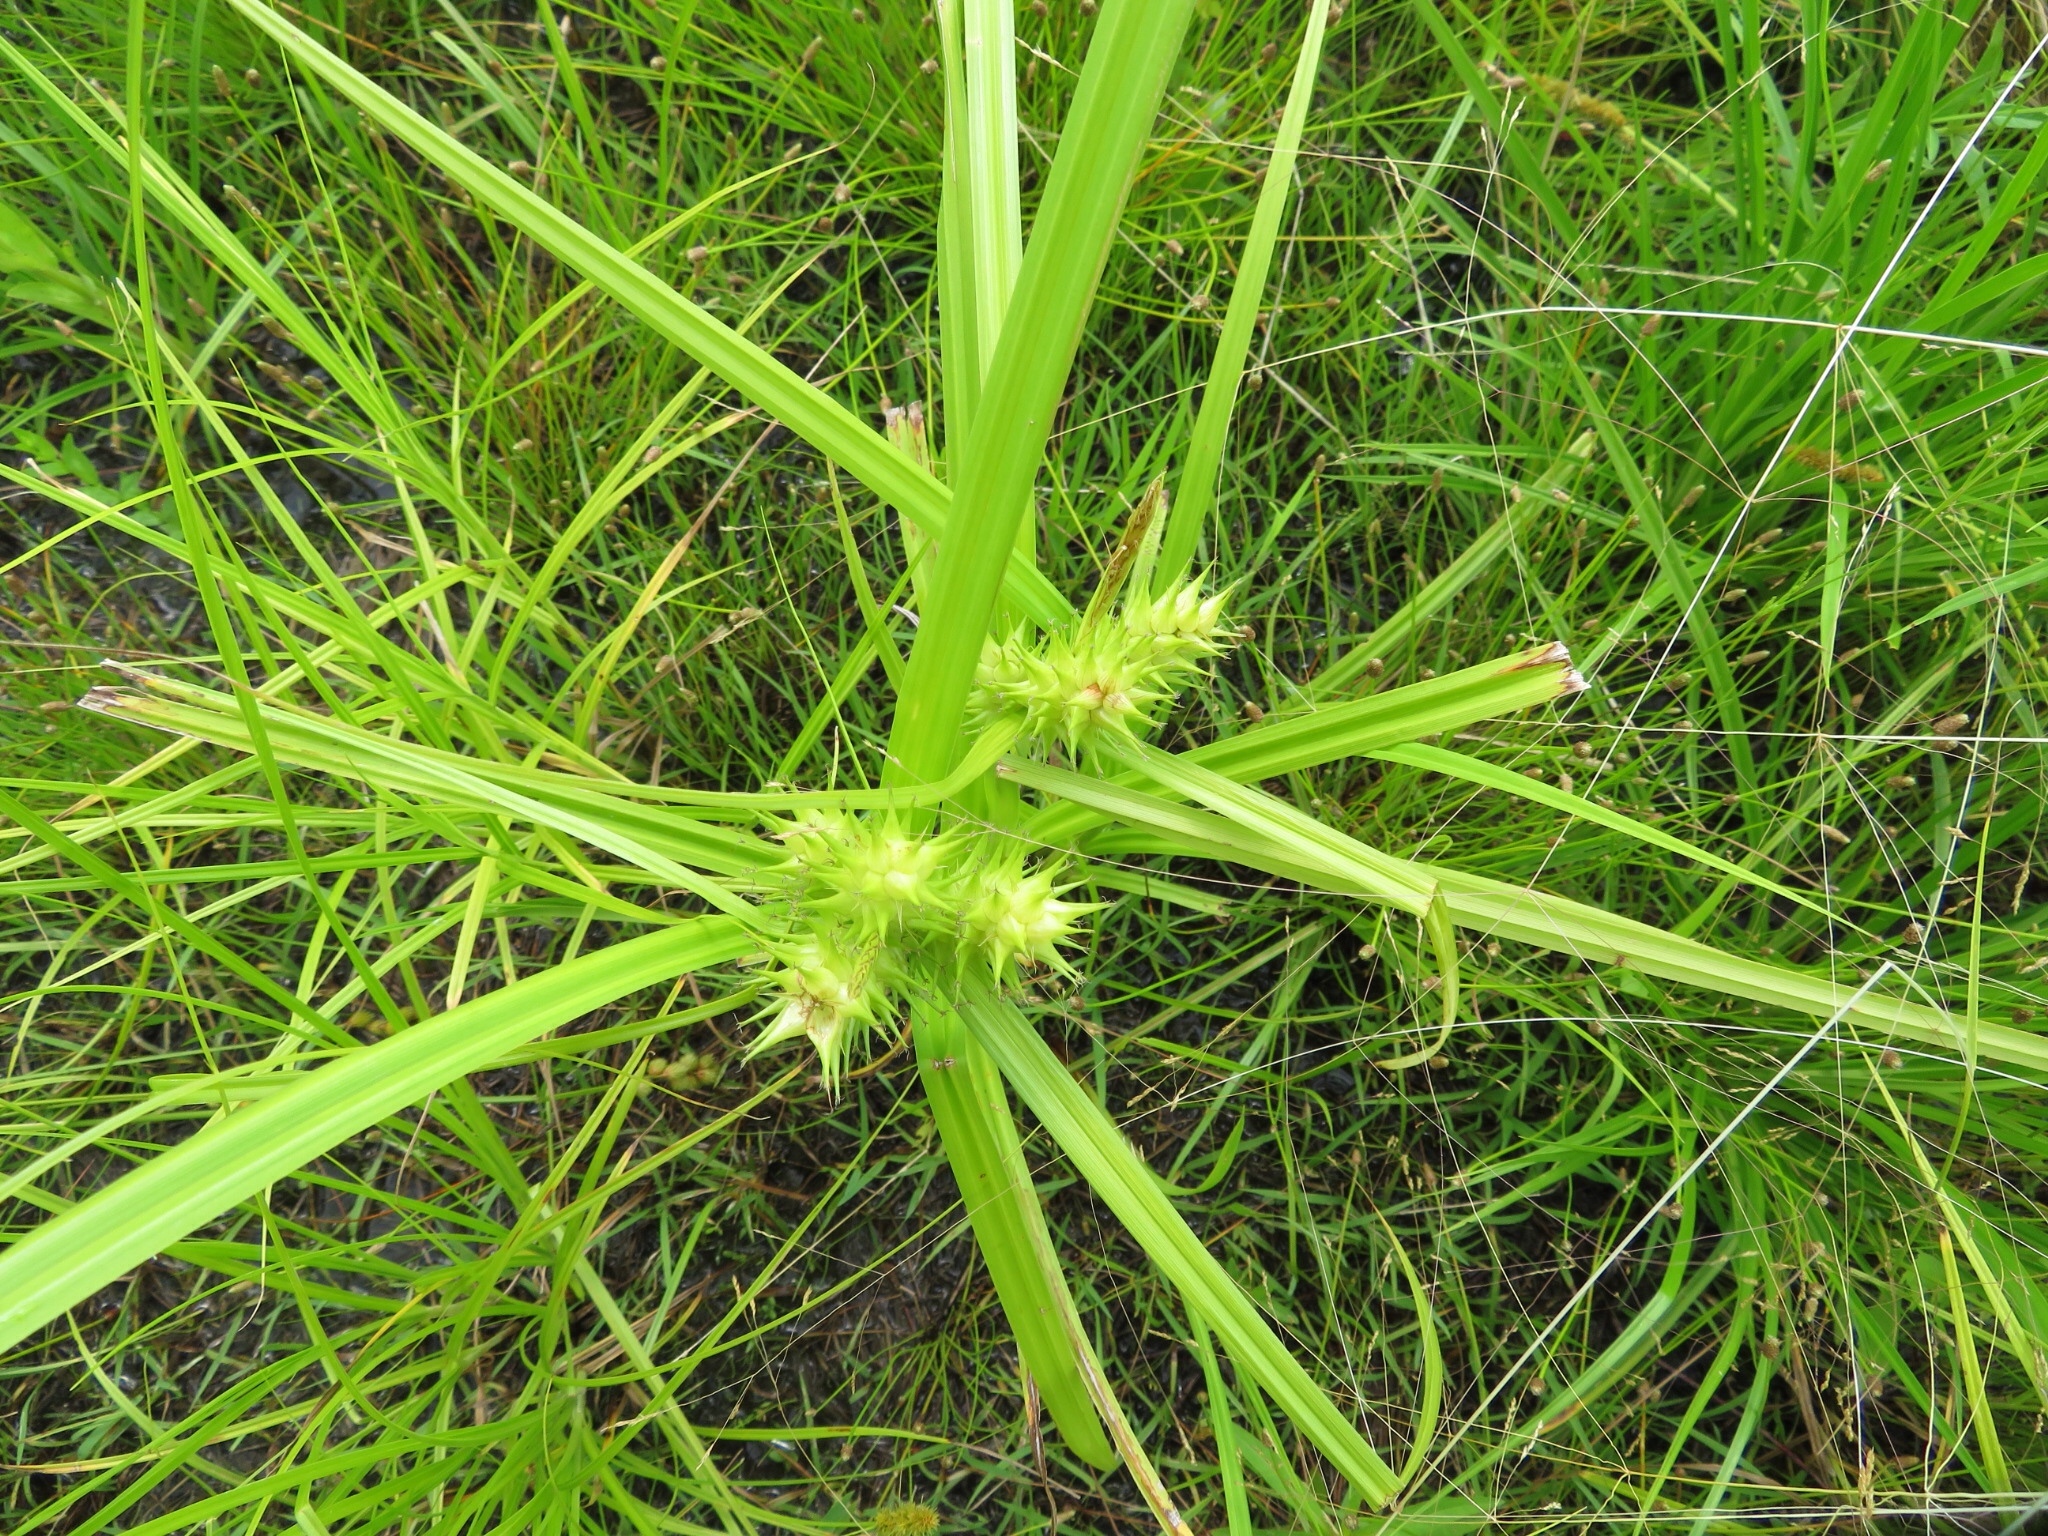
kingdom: Plantae
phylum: Tracheophyta
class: Liliopsida
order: Poales
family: Cyperaceae
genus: Carex
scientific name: Carex lupulina
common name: Hop sedge
